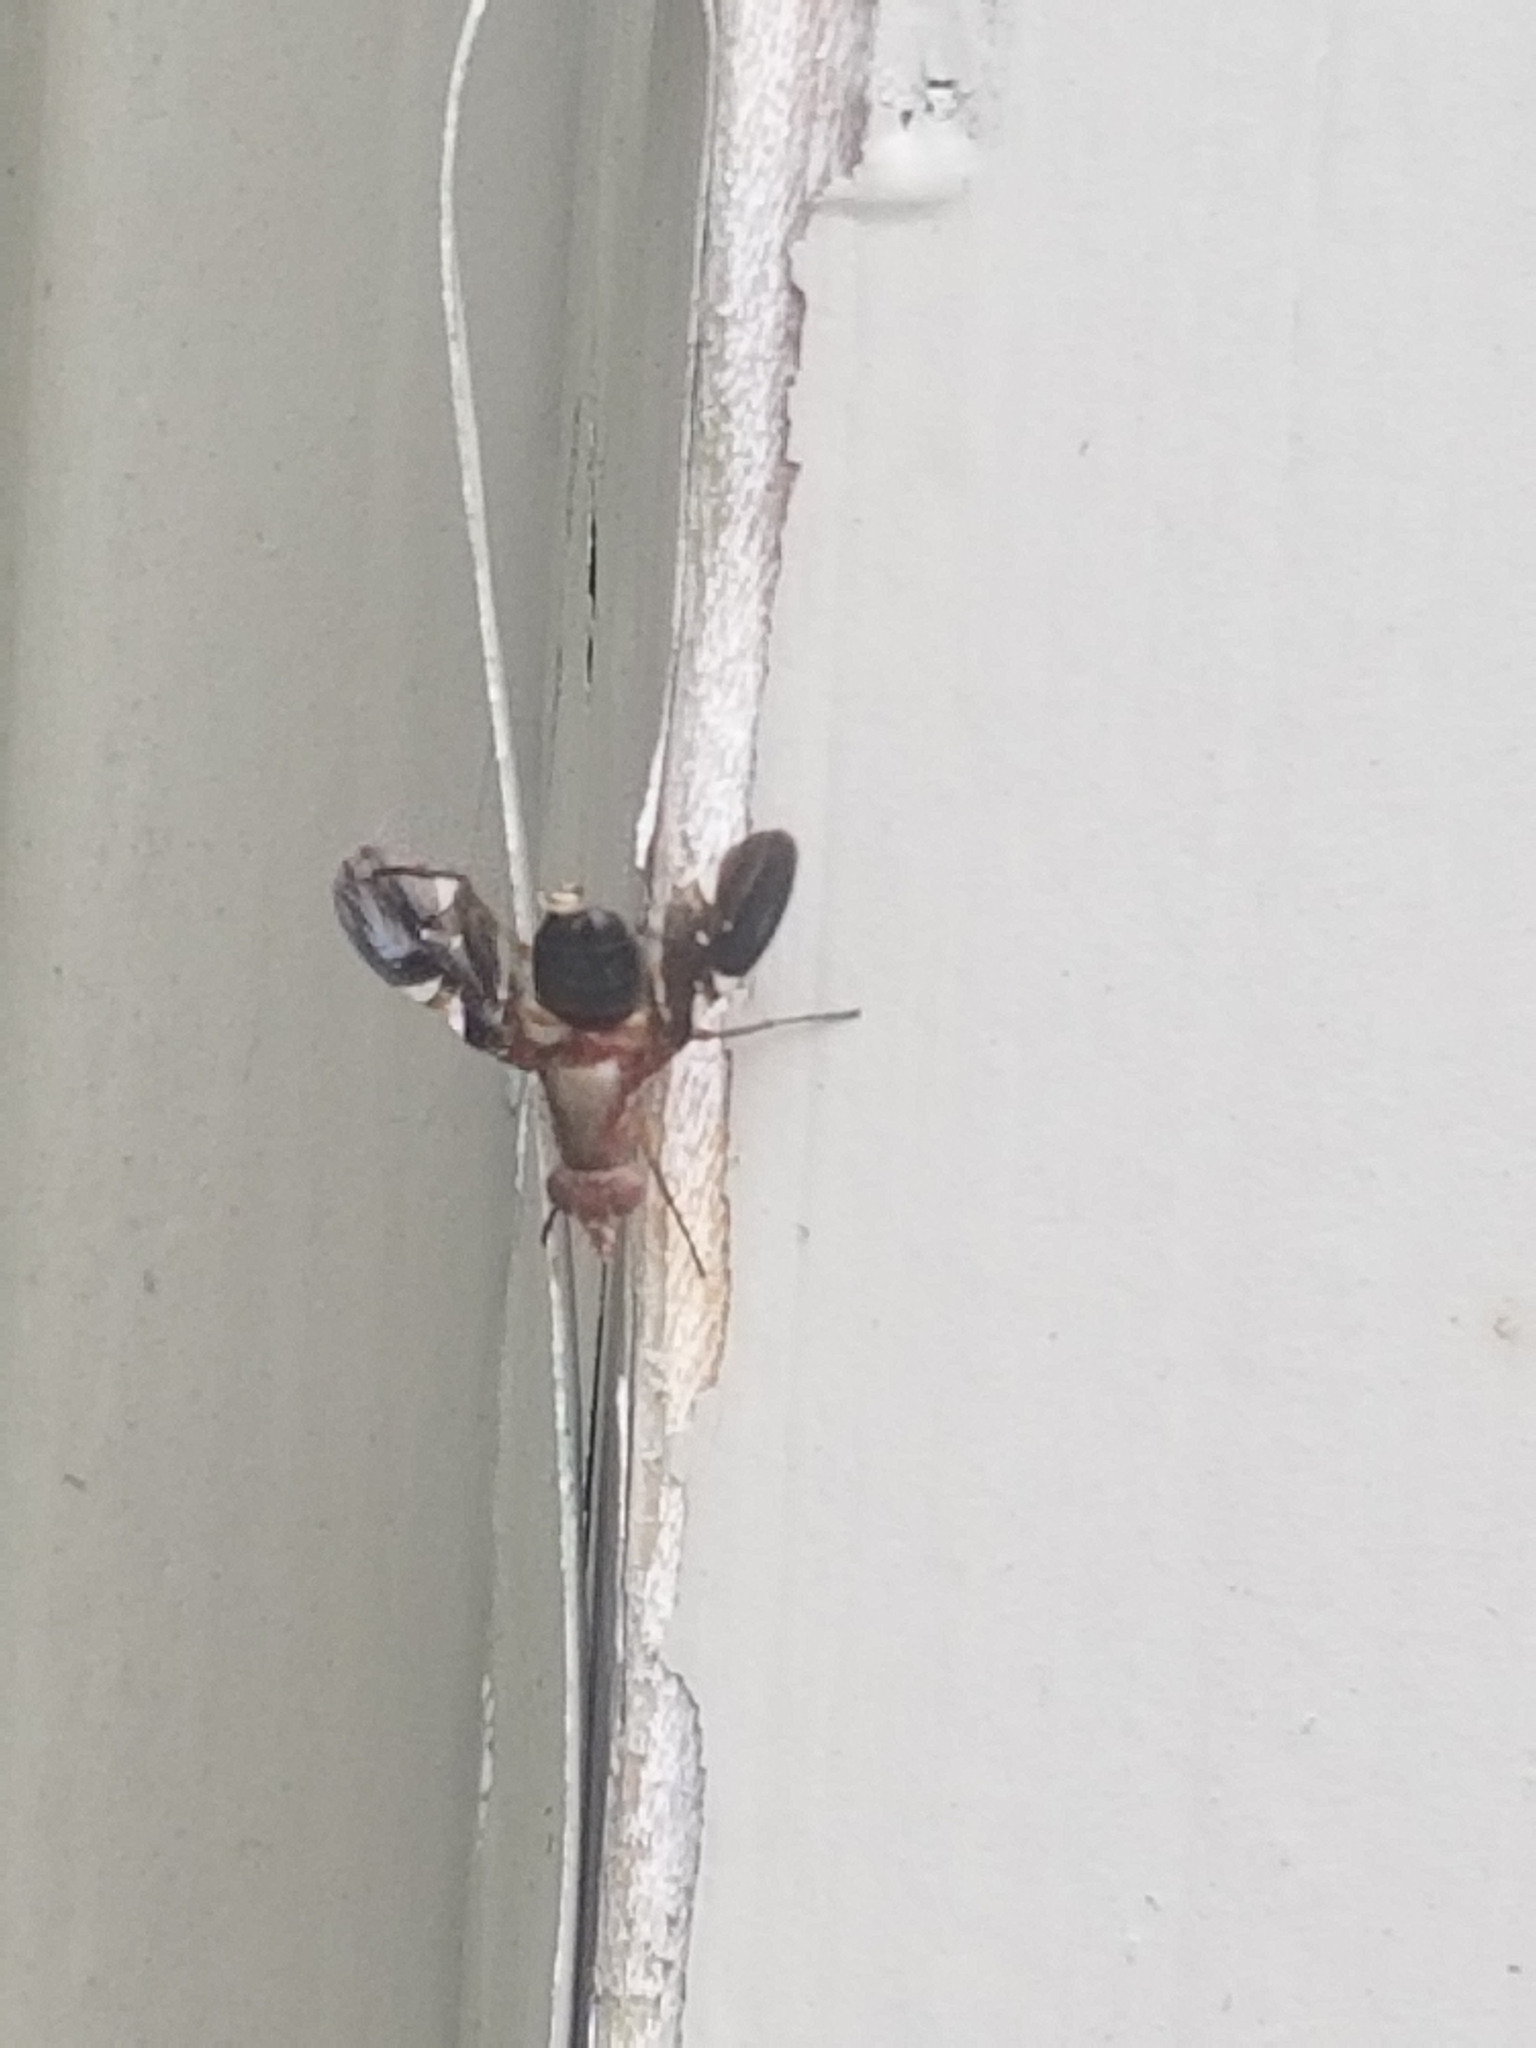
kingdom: Animalia
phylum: Arthropoda
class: Insecta
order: Diptera
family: Ulidiidae
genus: Delphinia
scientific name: Delphinia picta
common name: Common picture-winged fly
